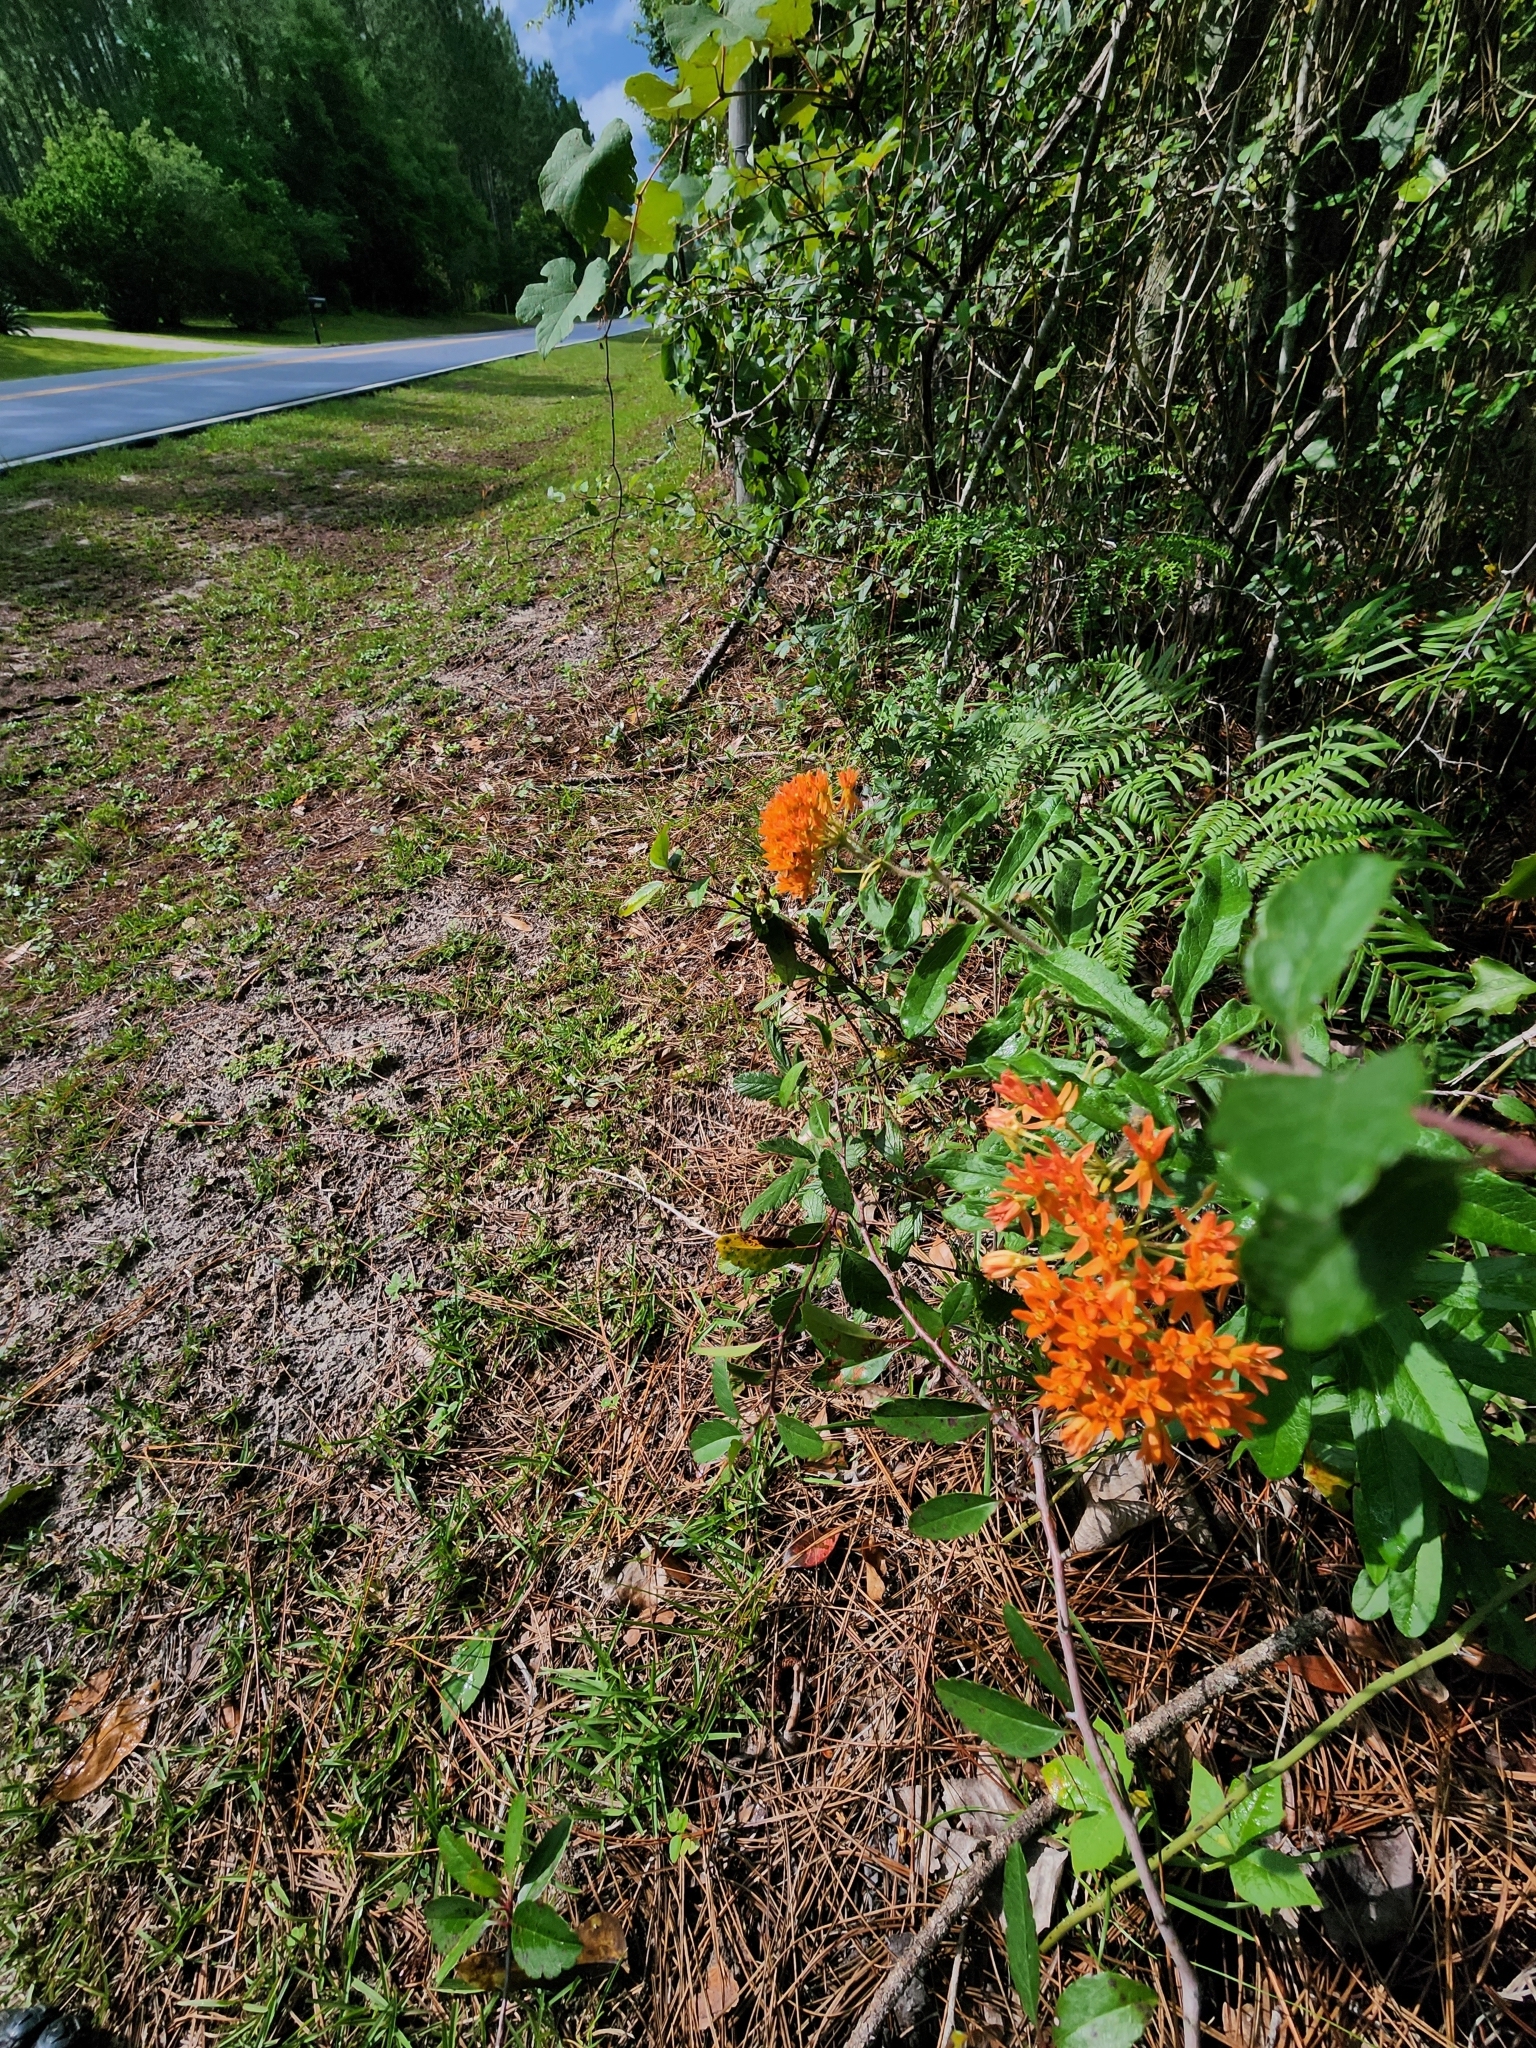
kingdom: Plantae
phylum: Tracheophyta
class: Magnoliopsida
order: Gentianales
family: Apocynaceae
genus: Asclepias
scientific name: Asclepias tuberosa
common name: Butterfly milkweed
